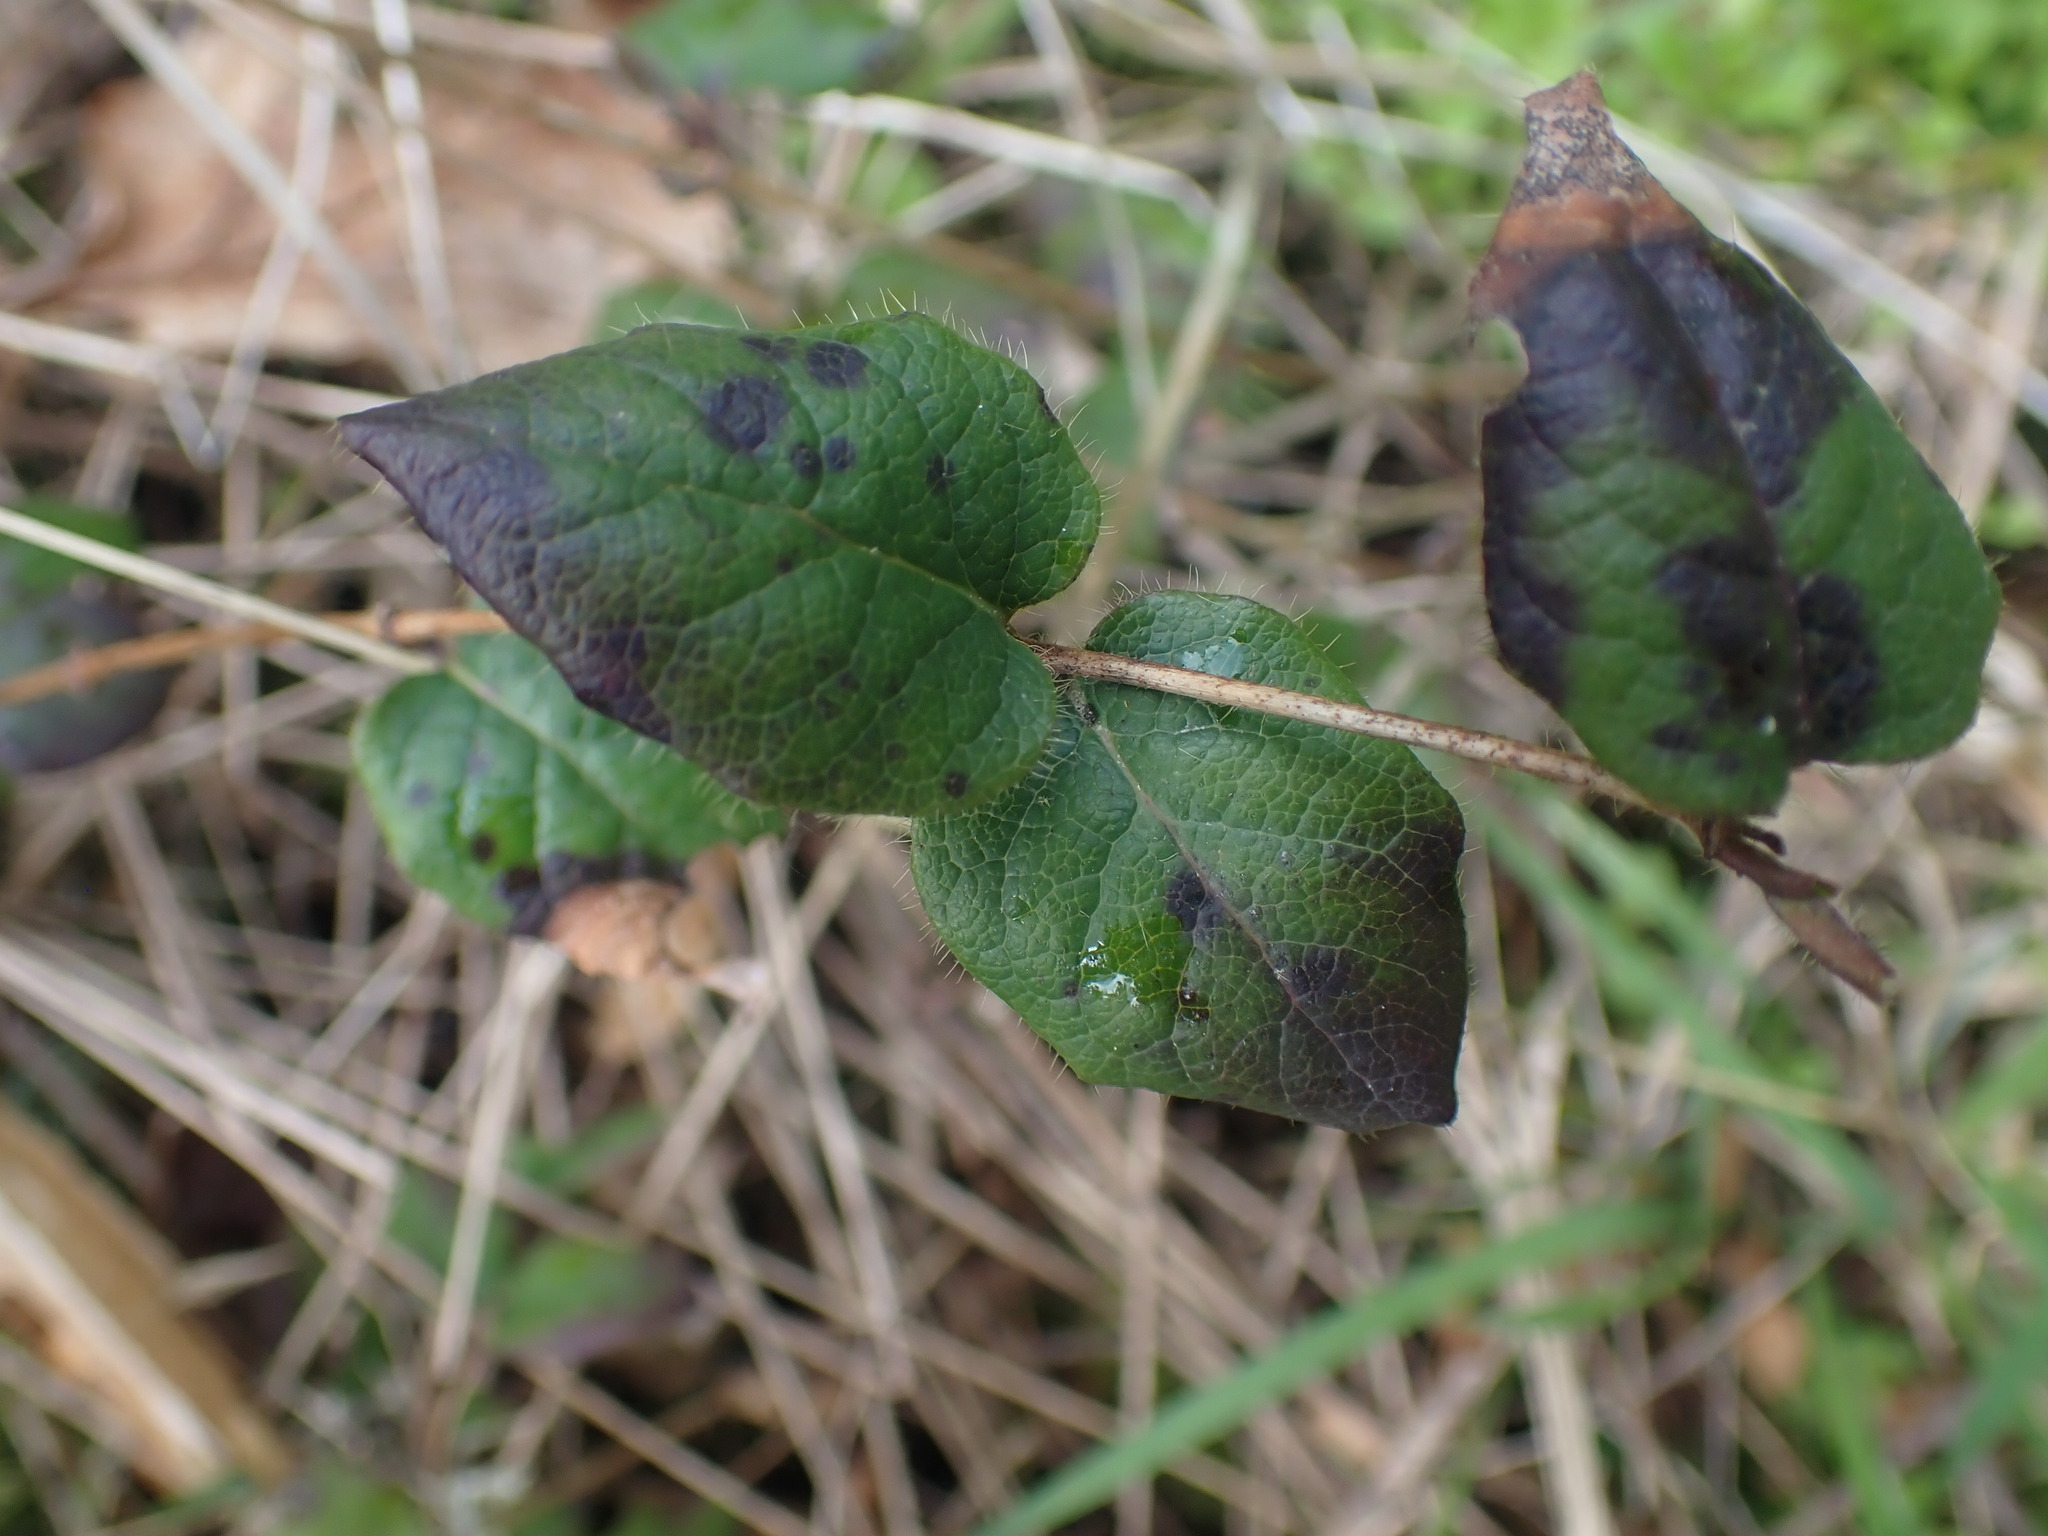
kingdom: Plantae
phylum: Tracheophyta
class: Magnoliopsida
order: Dipsacales
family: Caprifoliaceae
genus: Lonicera
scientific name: Lonicera hispidula
